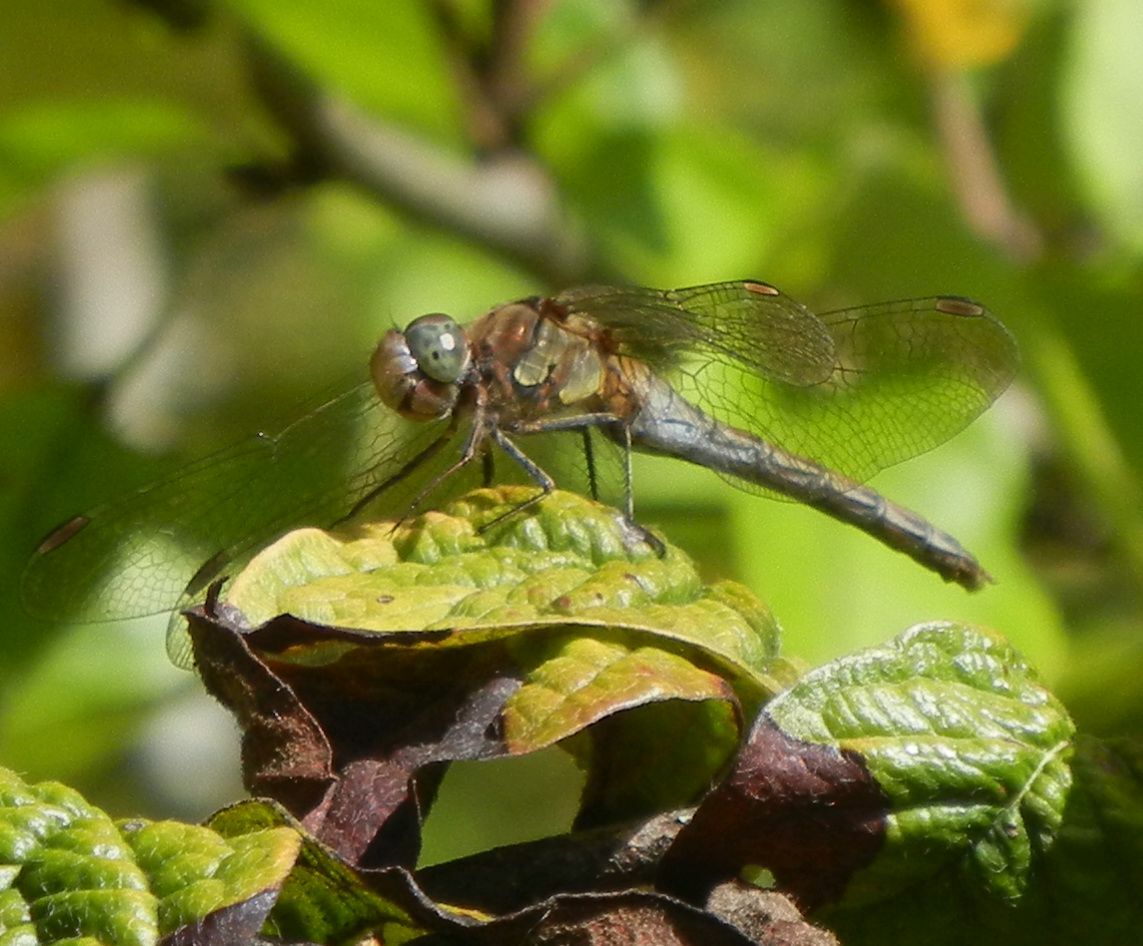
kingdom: Animalia
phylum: Arthropoda
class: Insecta
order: Odonata
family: Libellulidae
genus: Sympetrum
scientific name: Sympetrum striolatum
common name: Common darter
